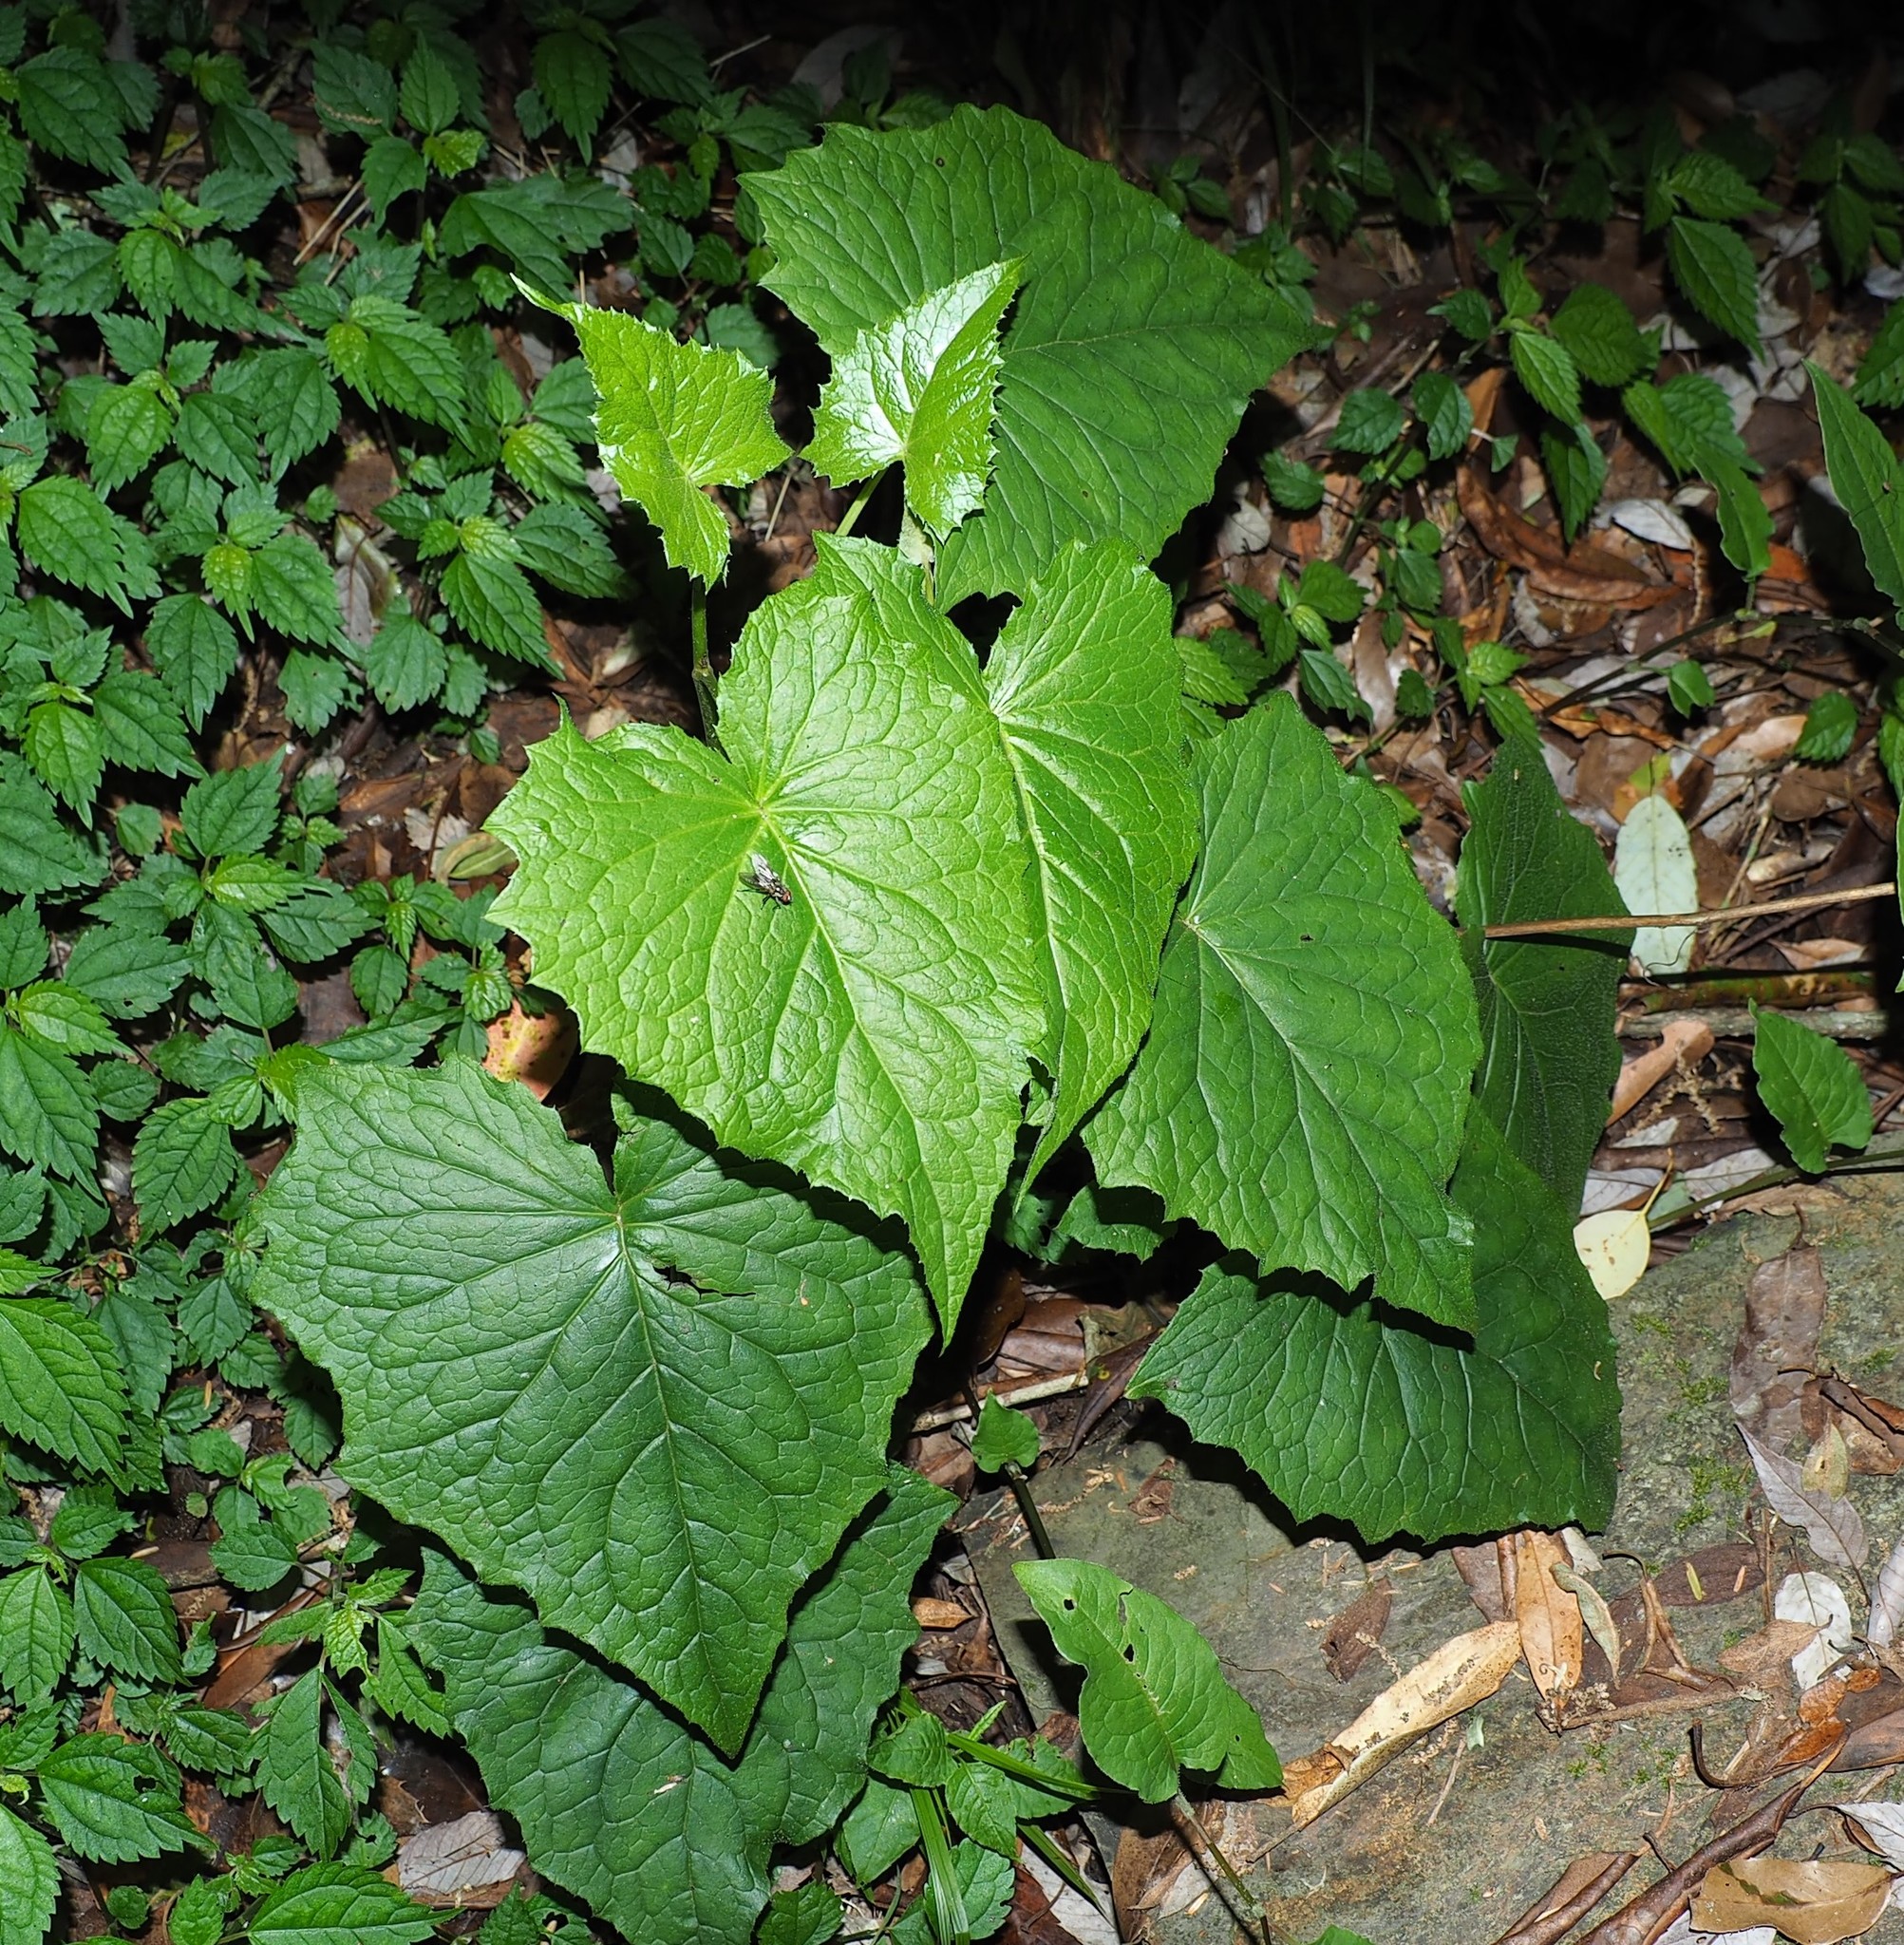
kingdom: Plantae
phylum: Tracheophyta
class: Magnoliopsida
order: Asterales
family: Asteraceae
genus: Paraprenanthes
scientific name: Paraprenanthes melanantha
